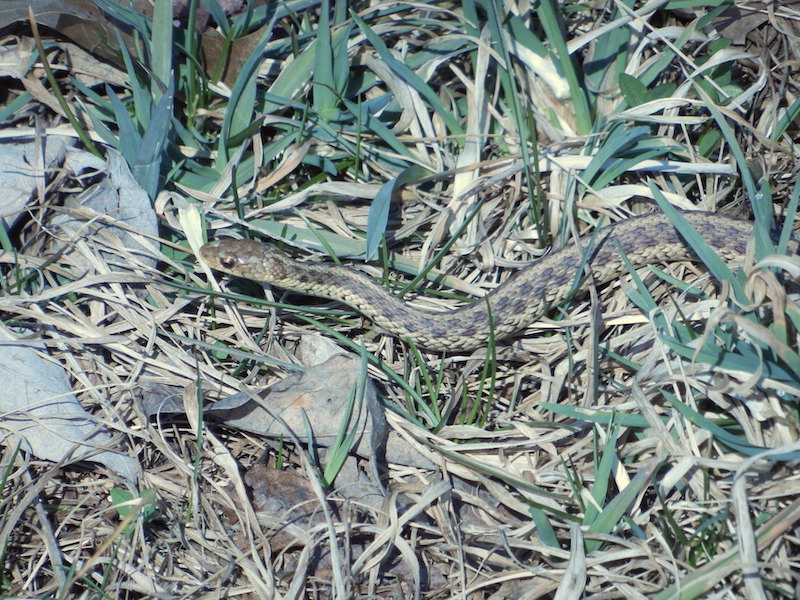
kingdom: Animalia
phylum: Chordata
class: Squamata
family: Colubridae
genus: Thamnophis
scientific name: Thamnophis sirtalis
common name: Common garter snake
